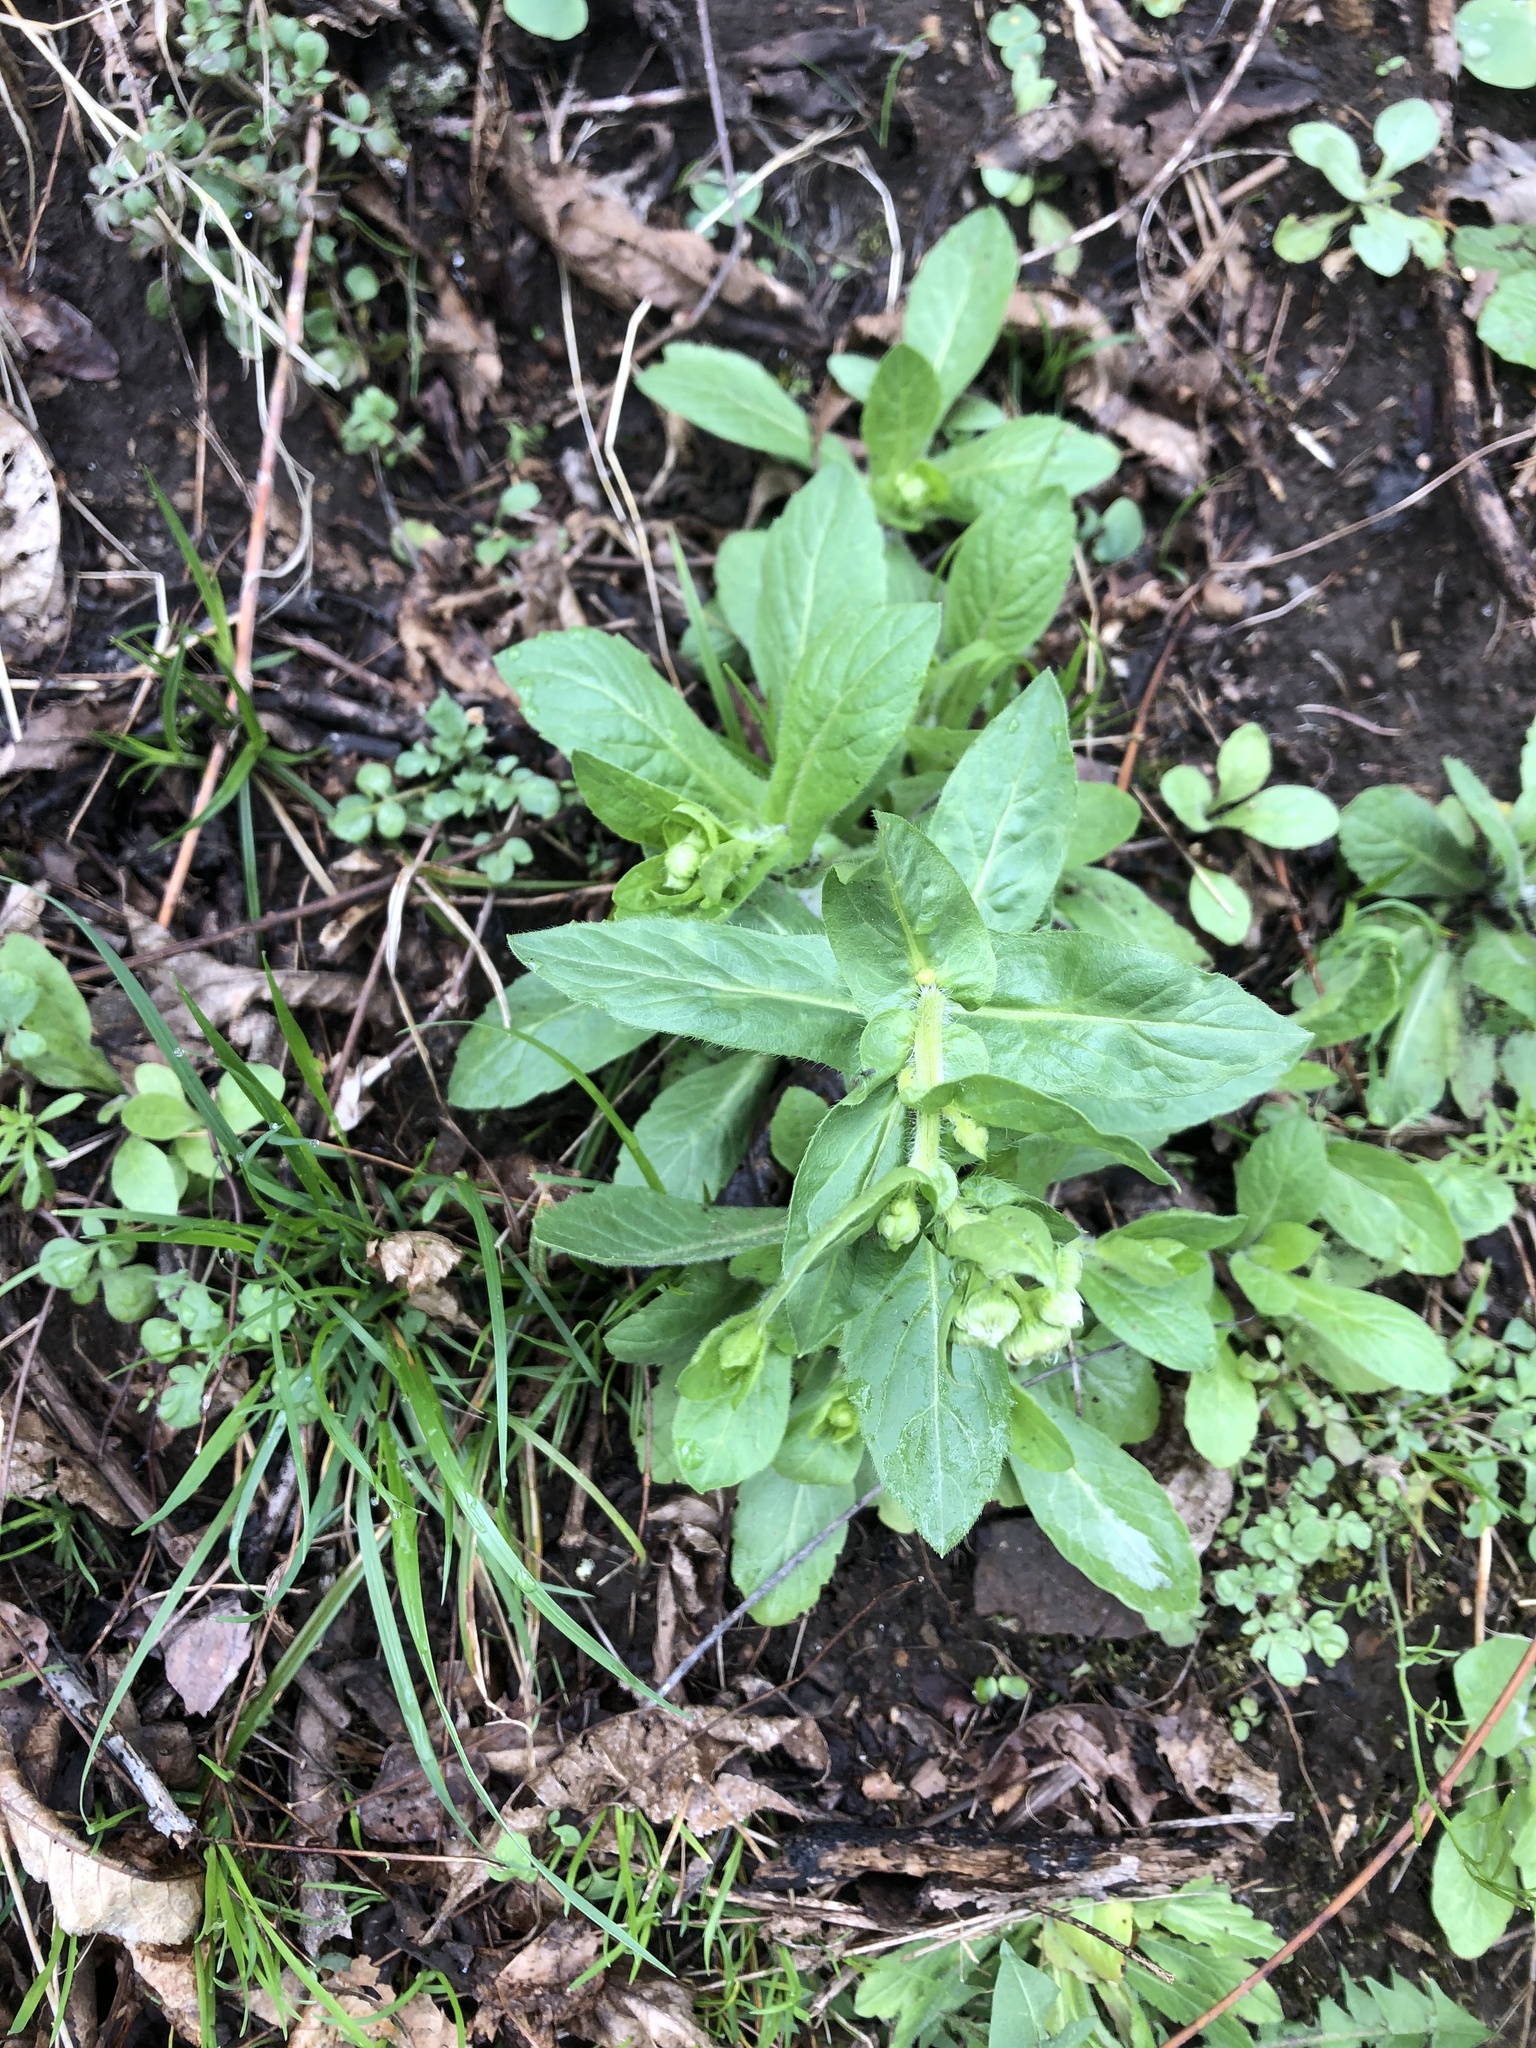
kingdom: Plantae
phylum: Tracheophyta
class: Magnoliopsida
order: Asterales
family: Asteraceae
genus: Erigeron
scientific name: Erigeron philadelphicus
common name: Robin's-plantain
